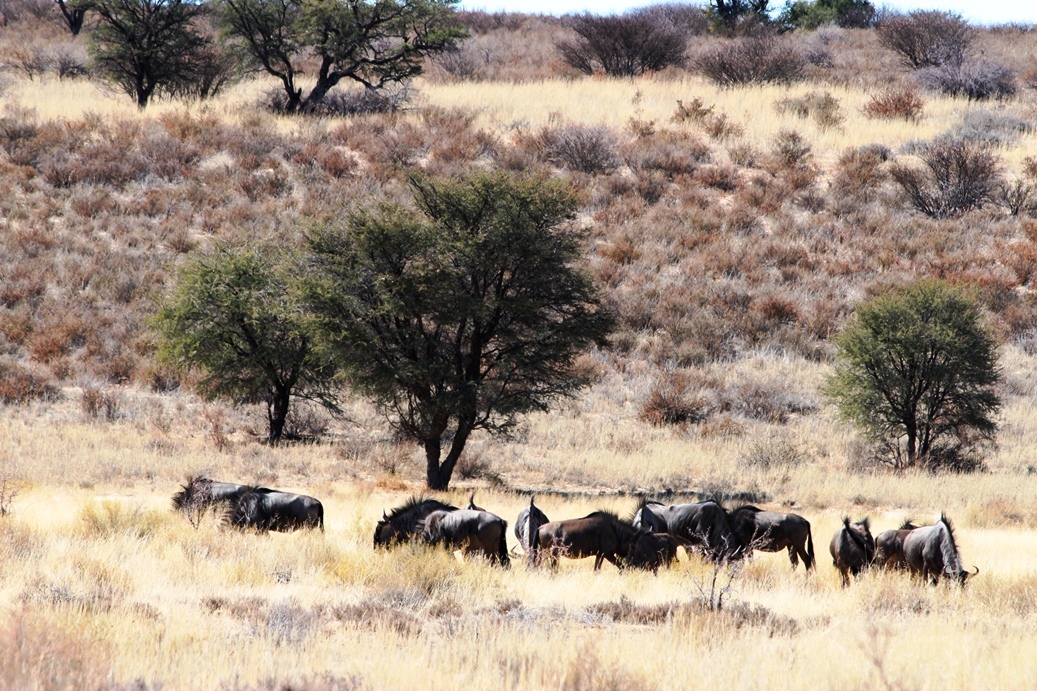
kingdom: Animalia
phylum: Chordata
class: Mammalia
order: Artiodactyla
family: Bovidae
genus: Connochaetes
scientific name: Connochaetes taurinus
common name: Blue wildebeest
